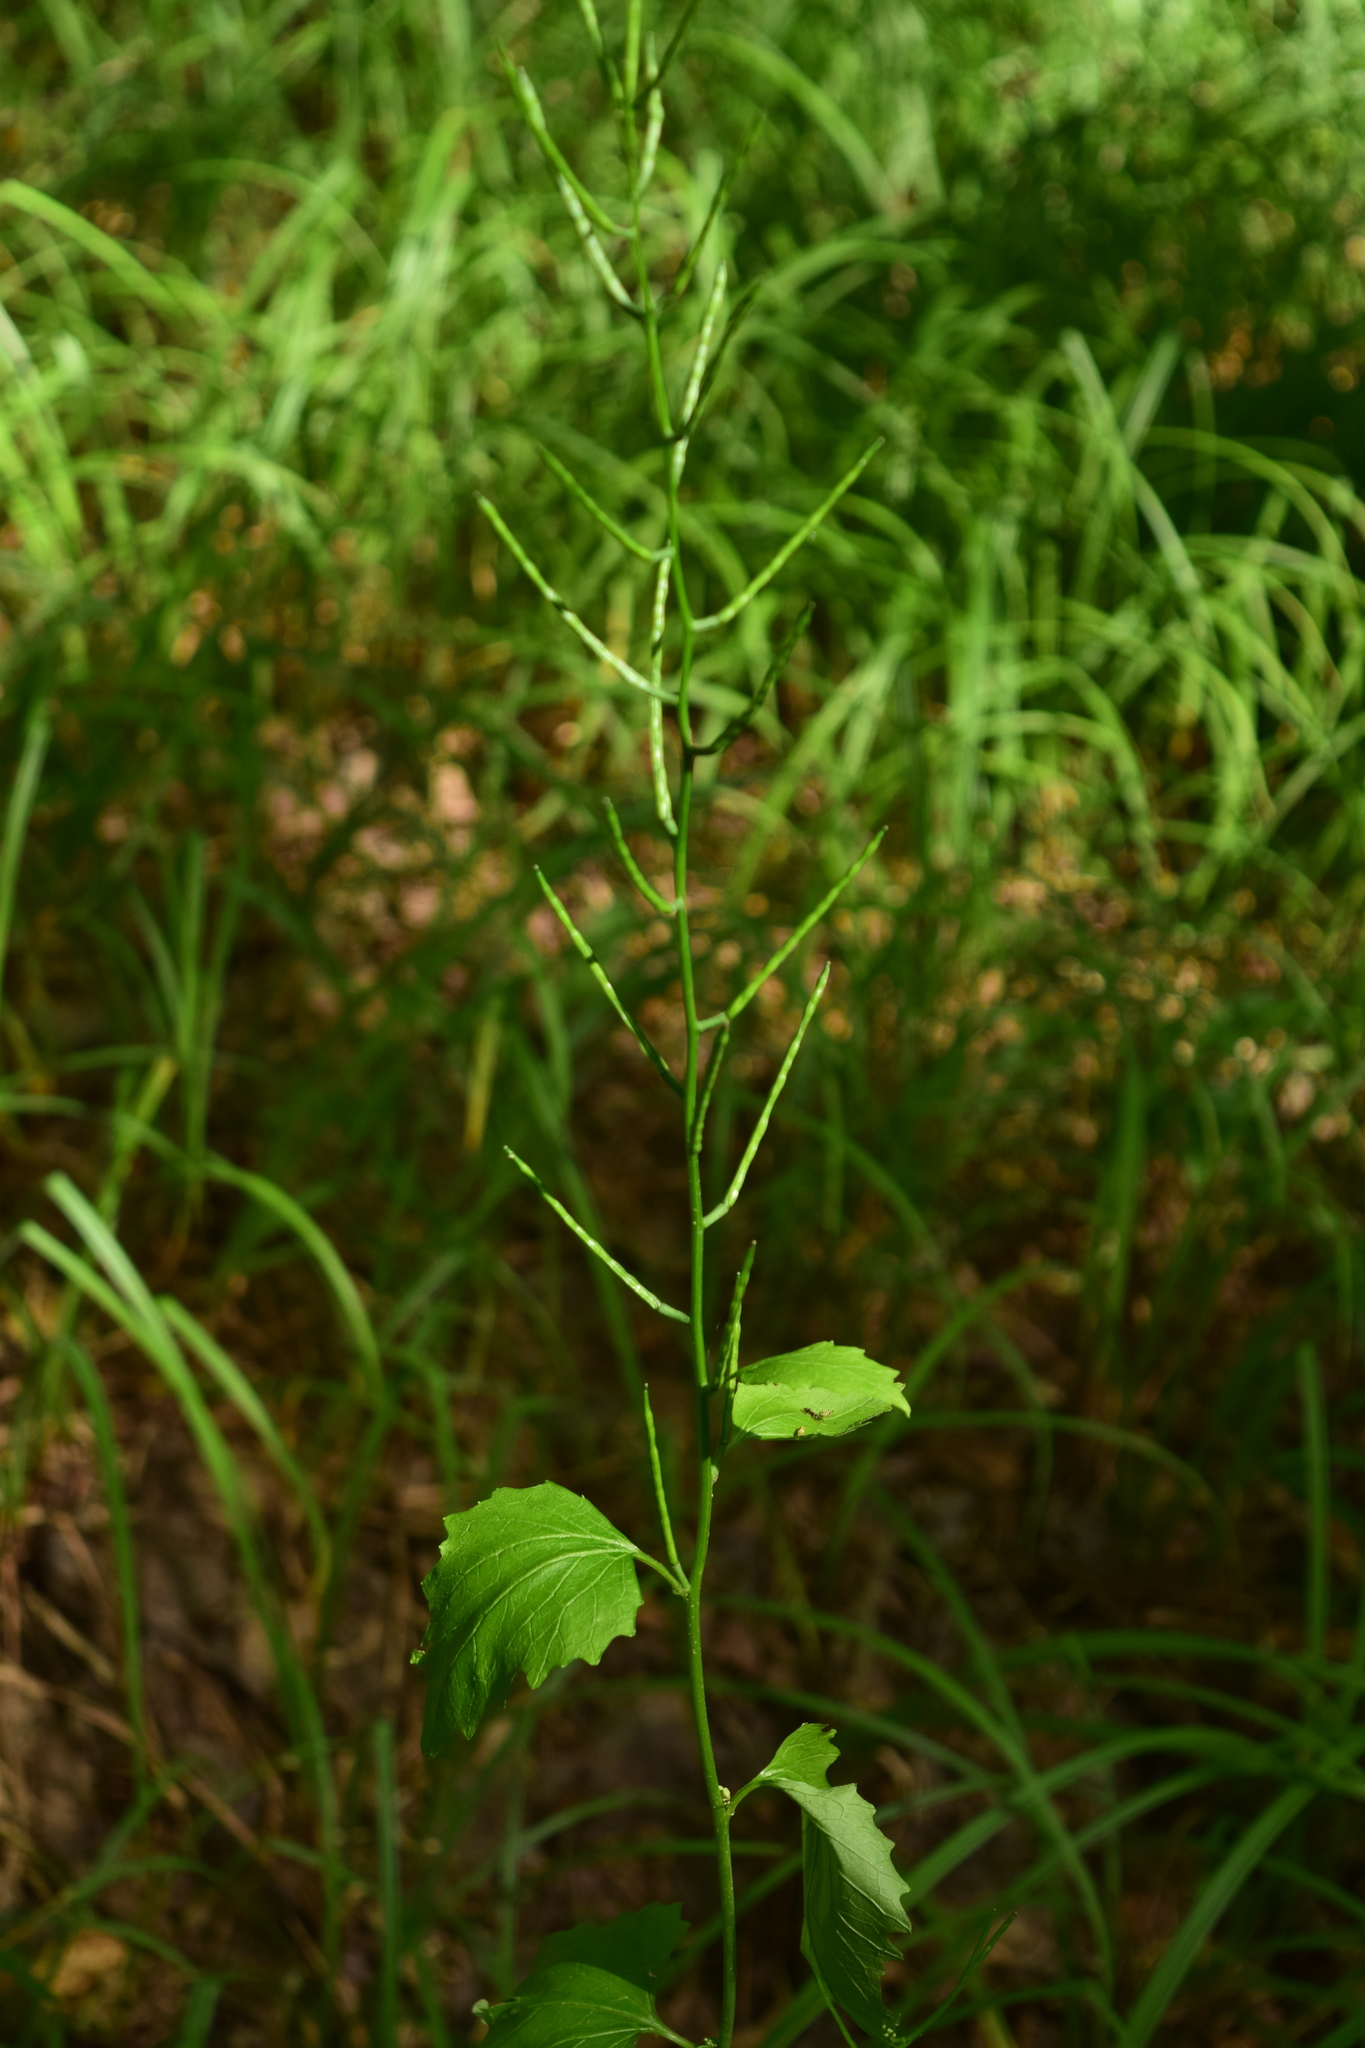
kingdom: Plantae
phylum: Tracheophyta
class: Magnoliopsida
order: Brassicales
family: Brassicaceae
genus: Alliaria
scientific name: Alliaria petiolata
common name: Garlic mustard
